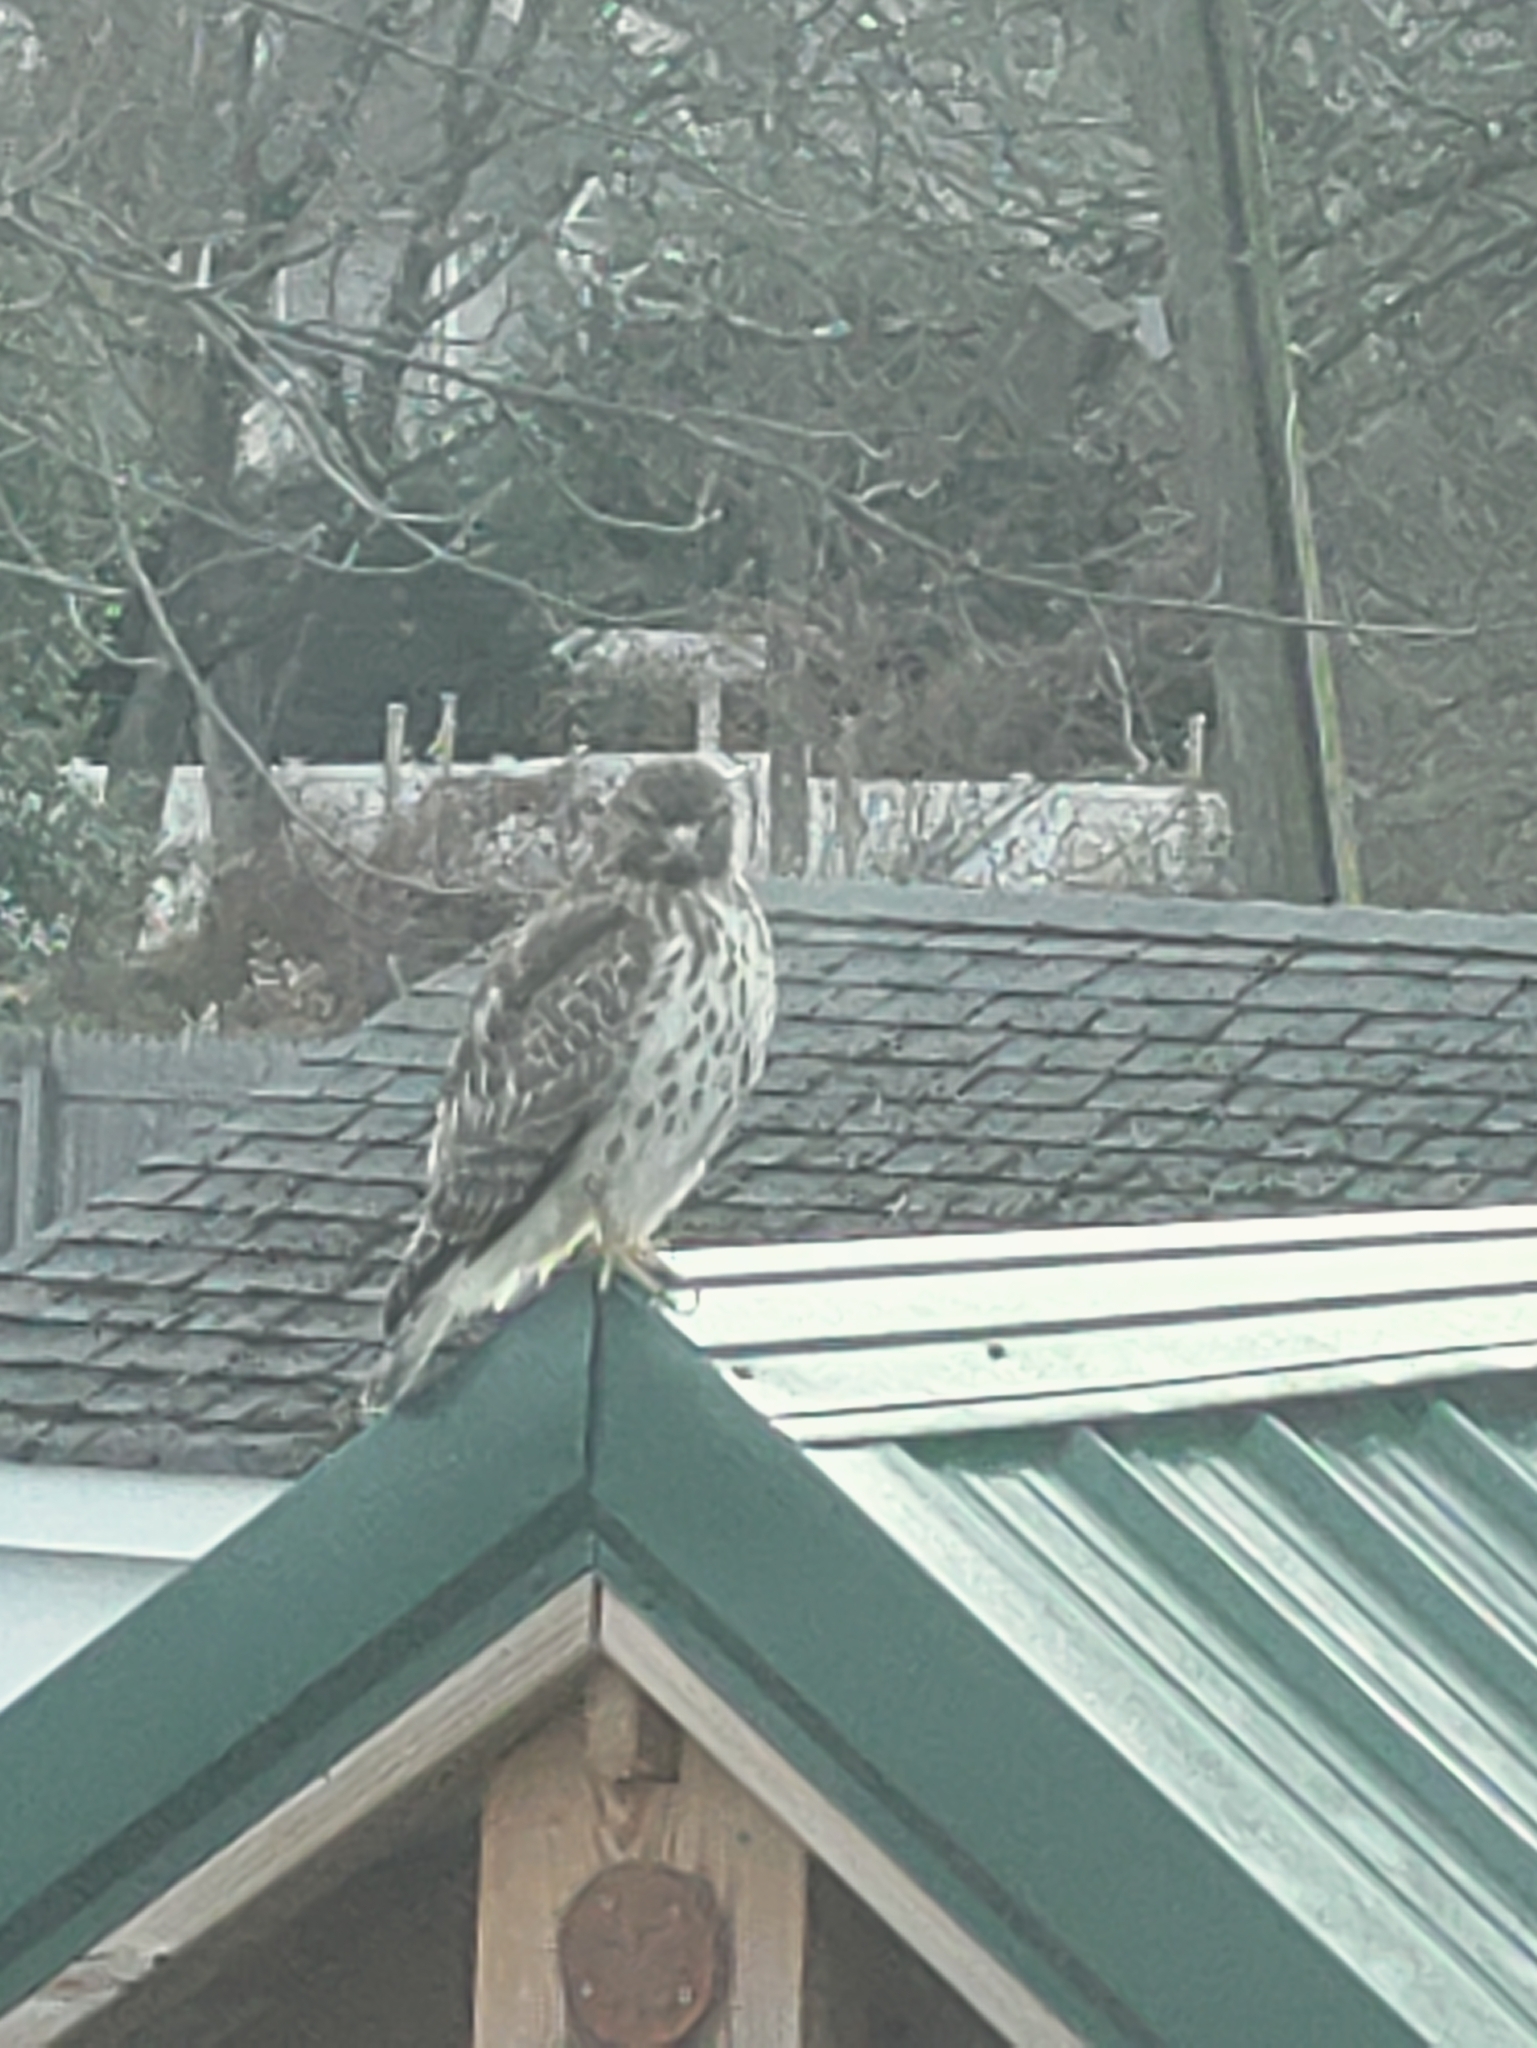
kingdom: Animalia
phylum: Chordata
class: Aves
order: Accipitriformes
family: Accipitridae
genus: Buteo
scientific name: Buteo lineatus
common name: Red-shouldered hawk
